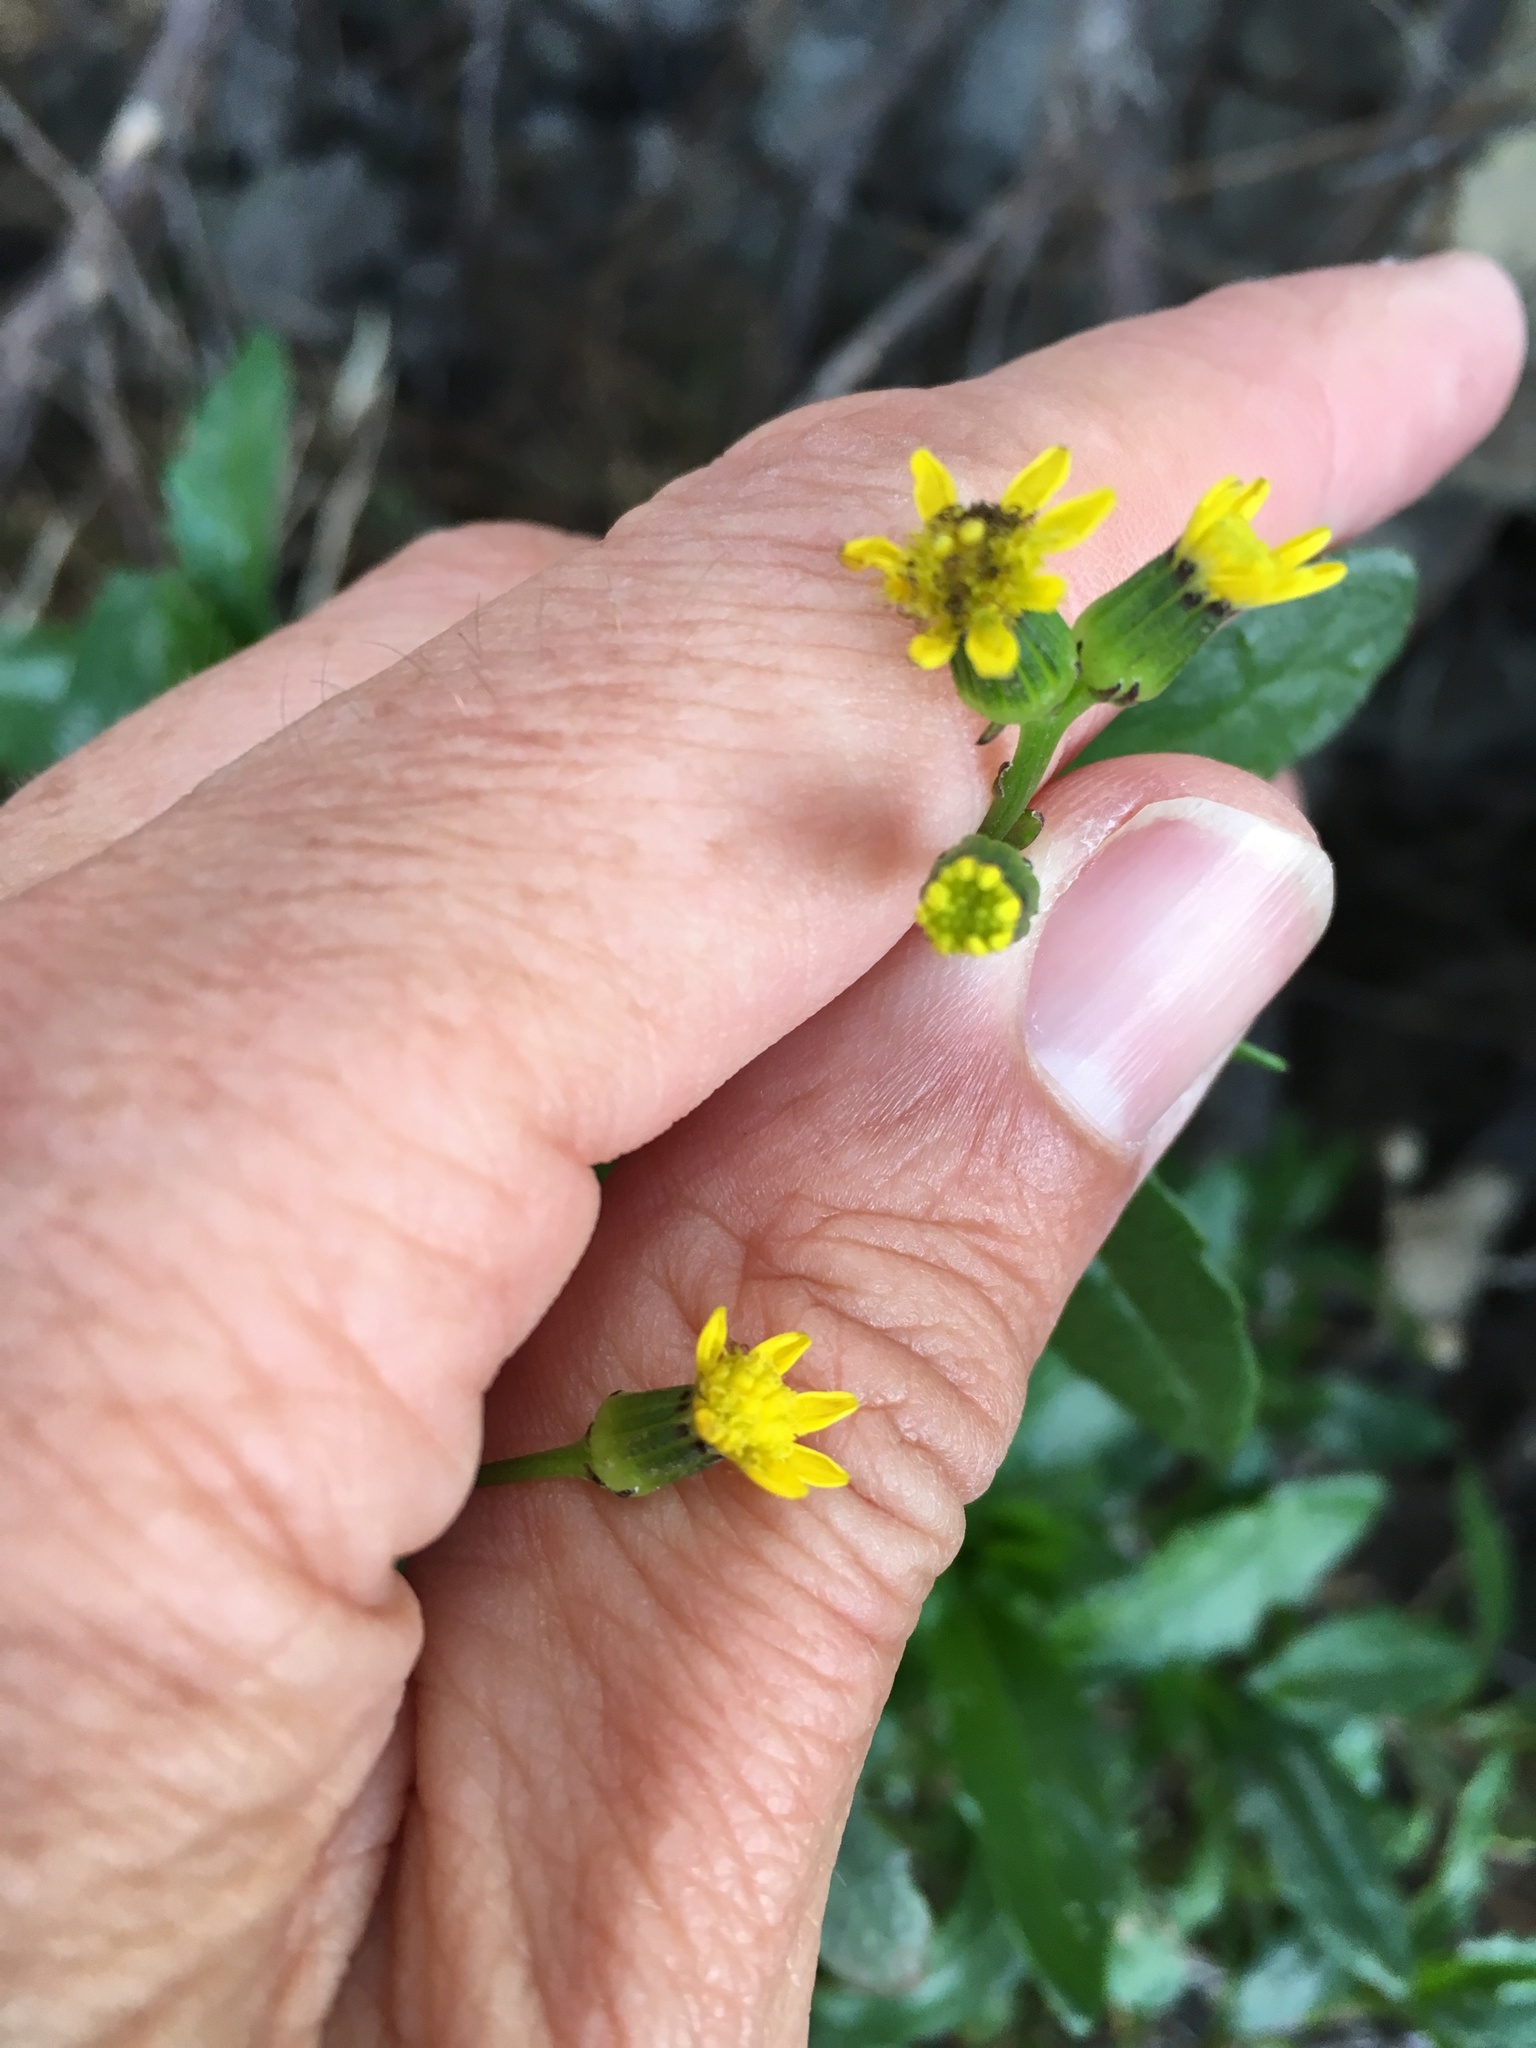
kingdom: Plantae
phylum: Tracheophyta
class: Magnoliopsida
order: Asterales
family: Asteraceae
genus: Senecio
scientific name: Senecio matatini
